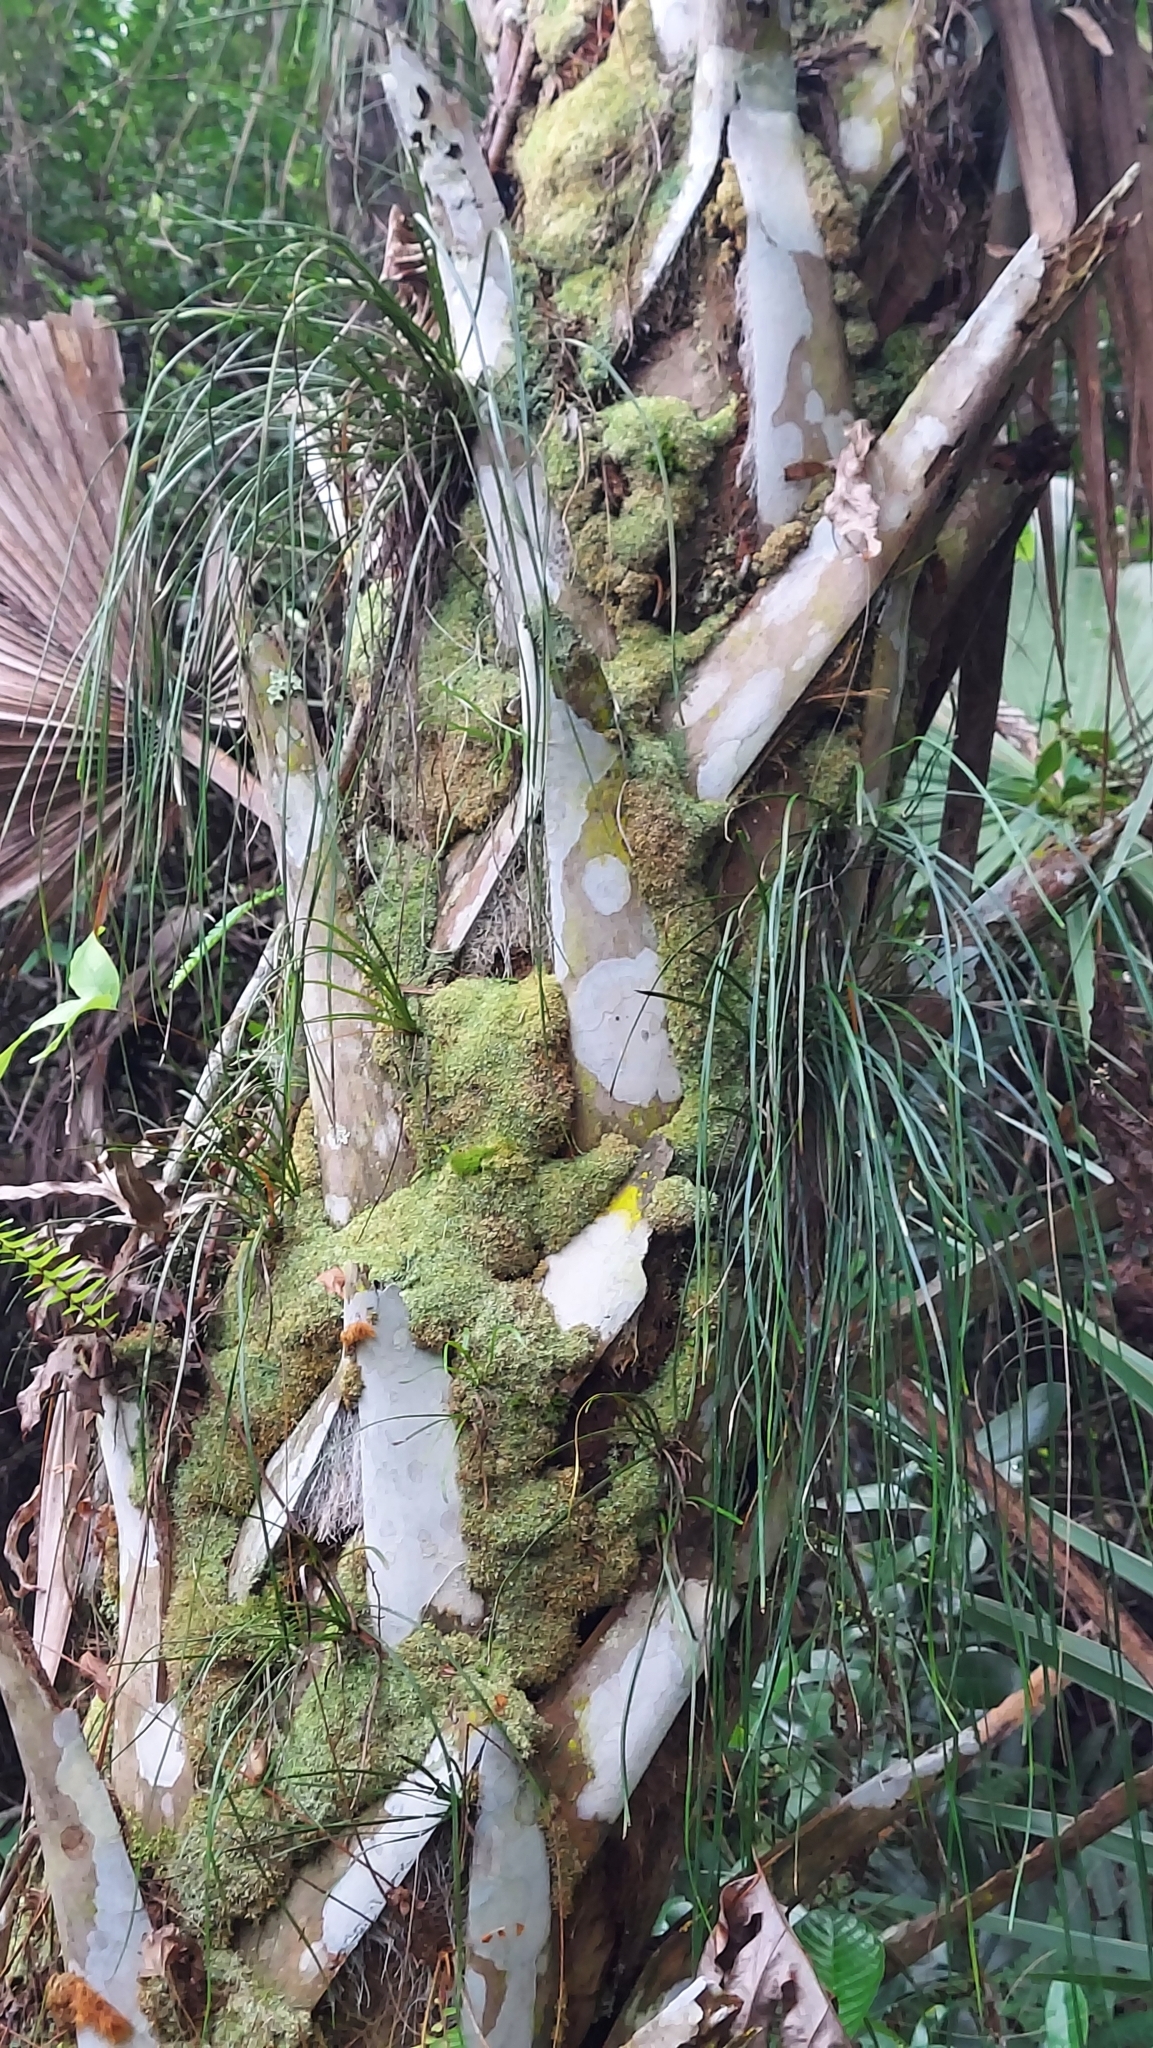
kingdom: Plantae
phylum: Tracheophyta
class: Polypodiopsida
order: Polypodiales
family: Pteridaceae
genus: Vittaria
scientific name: Vittaria lineata
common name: Shoestring fern
